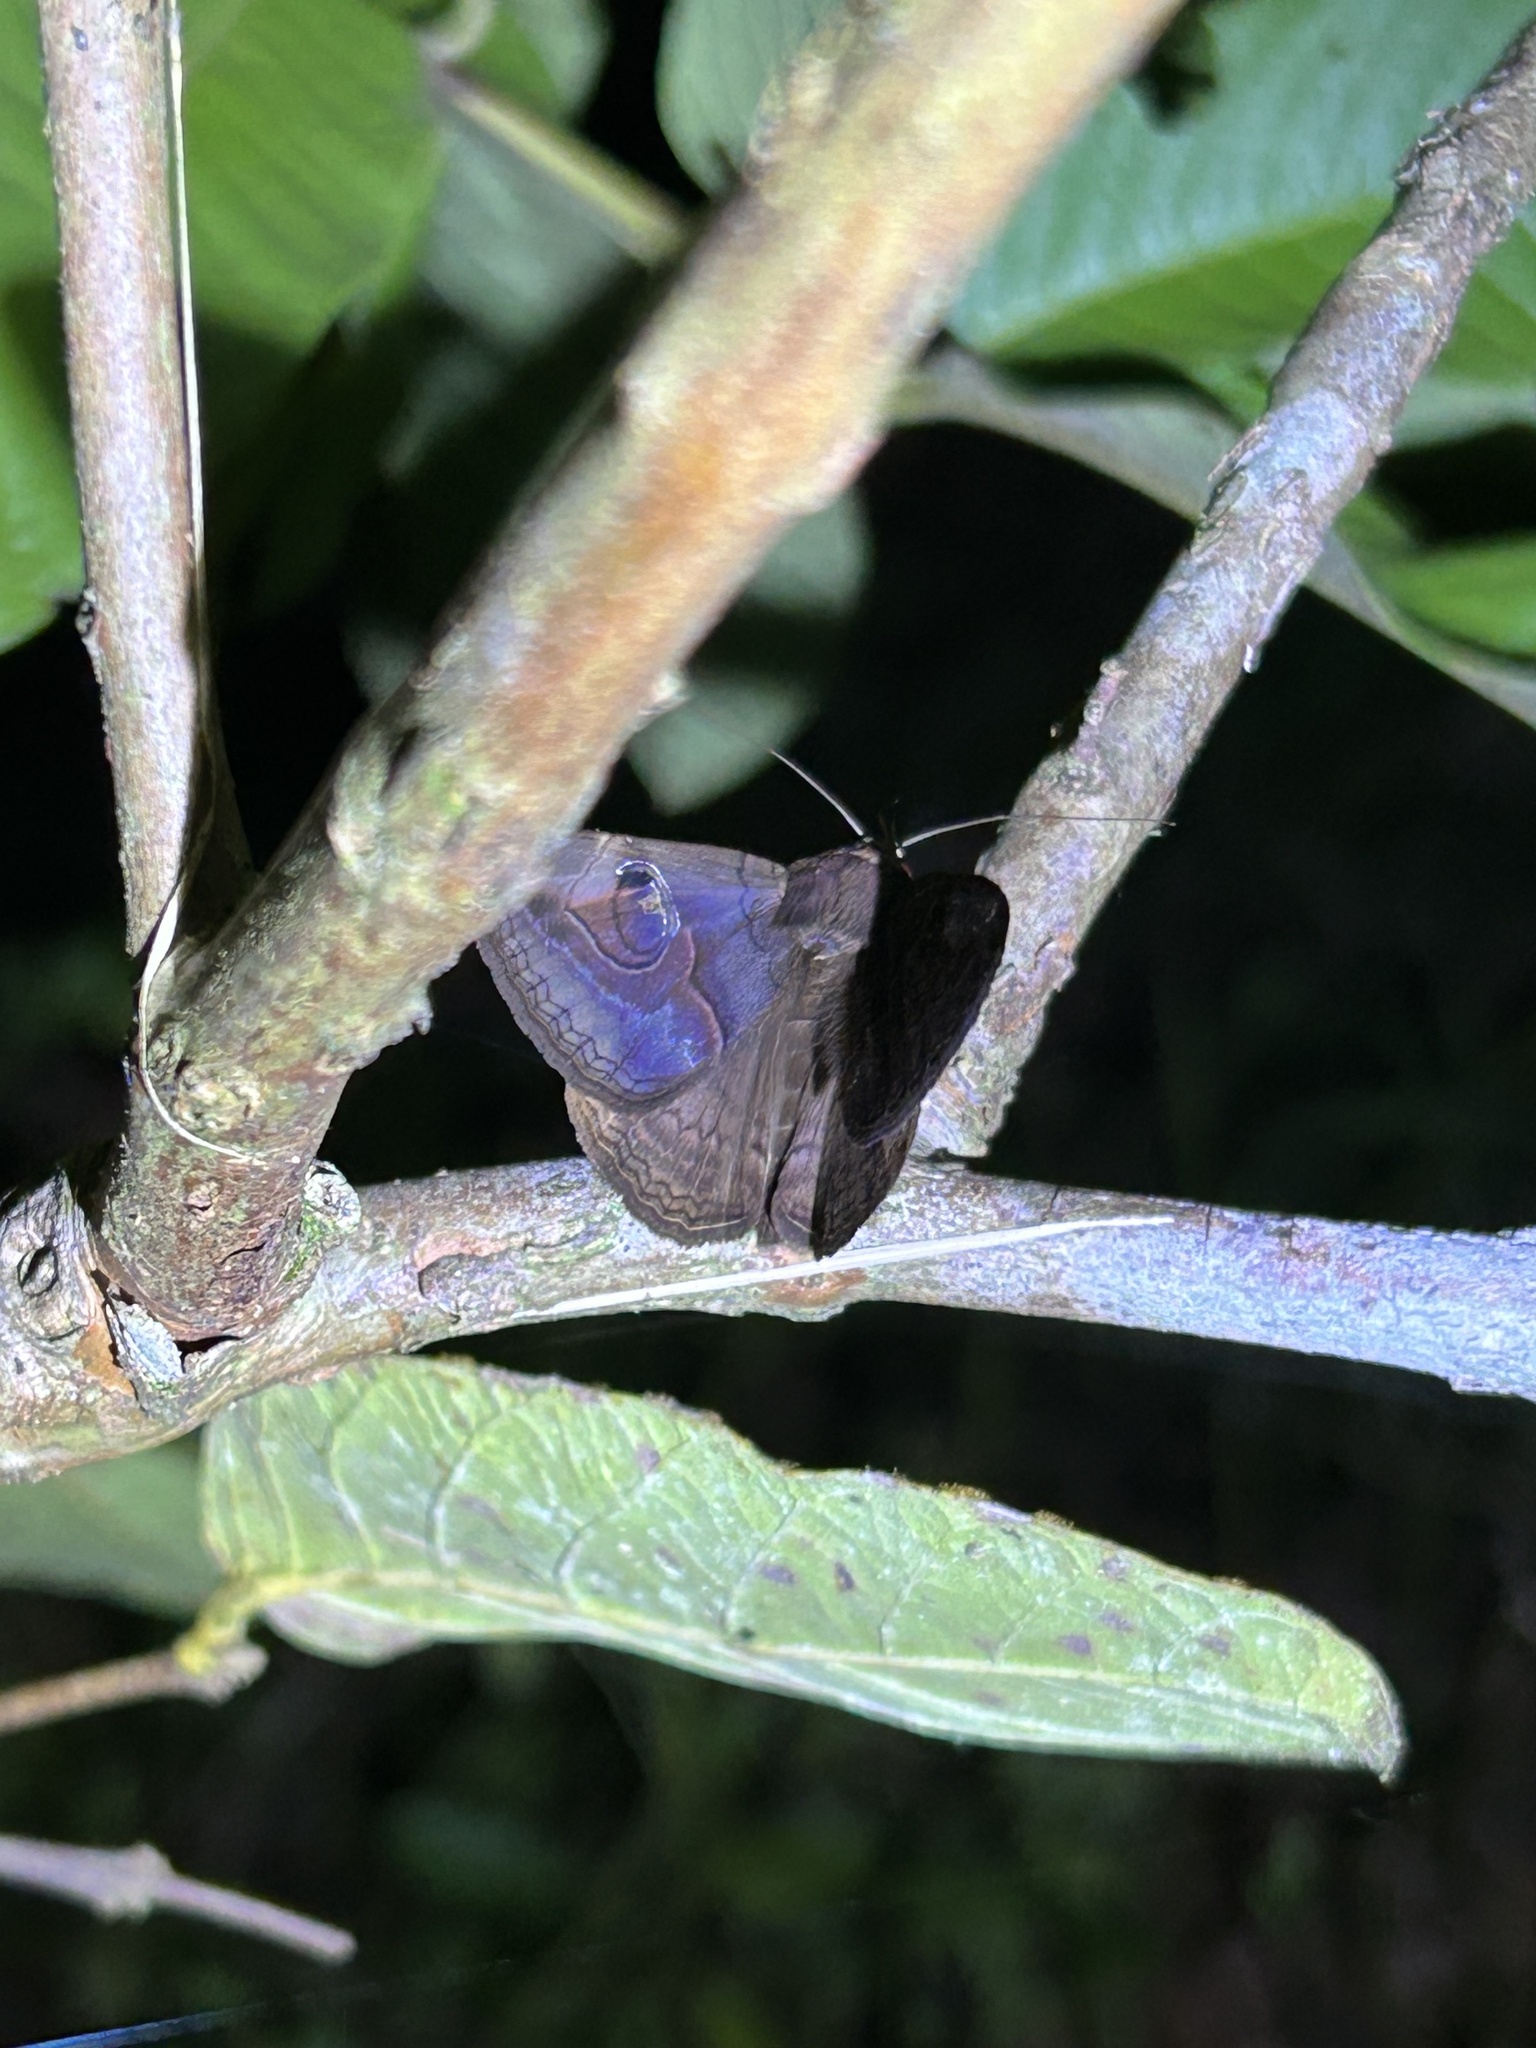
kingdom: Animalia
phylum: Arthropoda
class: Insecta
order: Lepidoptera
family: Erebidae
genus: Ommatophora
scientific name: Ommatophora luminosa
